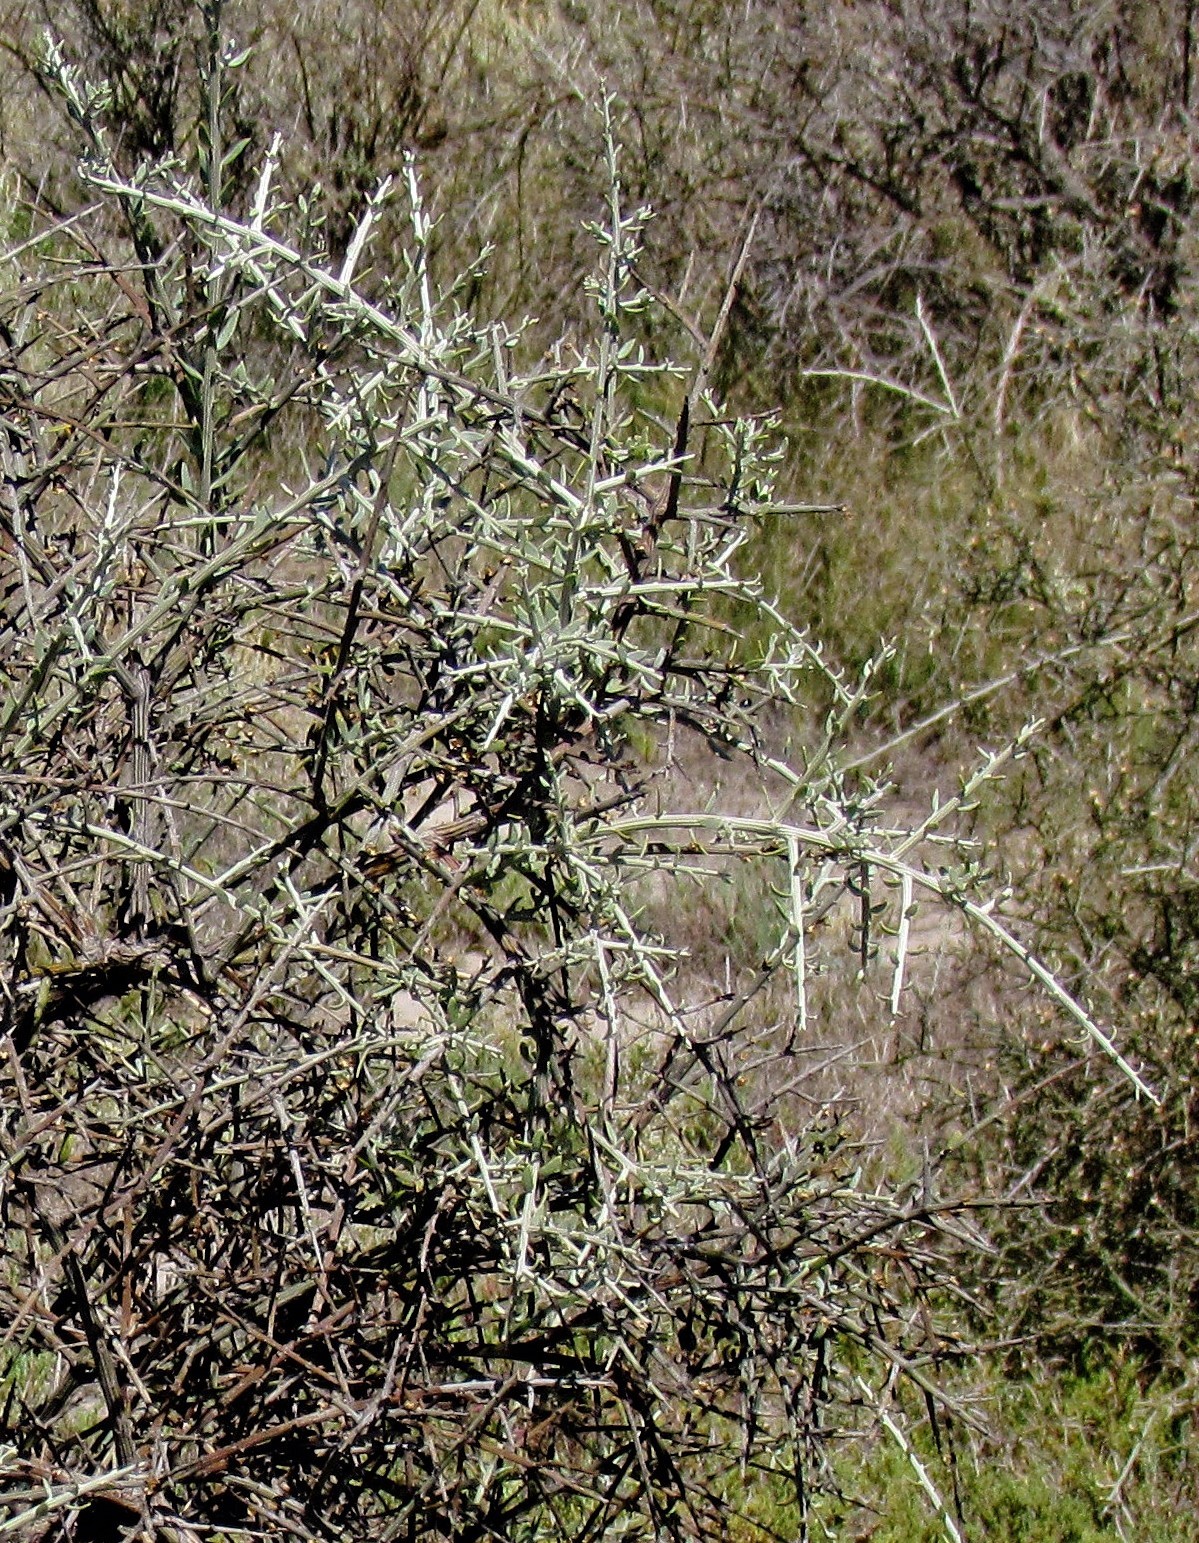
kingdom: Plantae
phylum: Tracheophyta
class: Magnoliopsida
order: Asterales
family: Asteraceae
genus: Cyclolepis
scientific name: Cyclolepis genistoides
